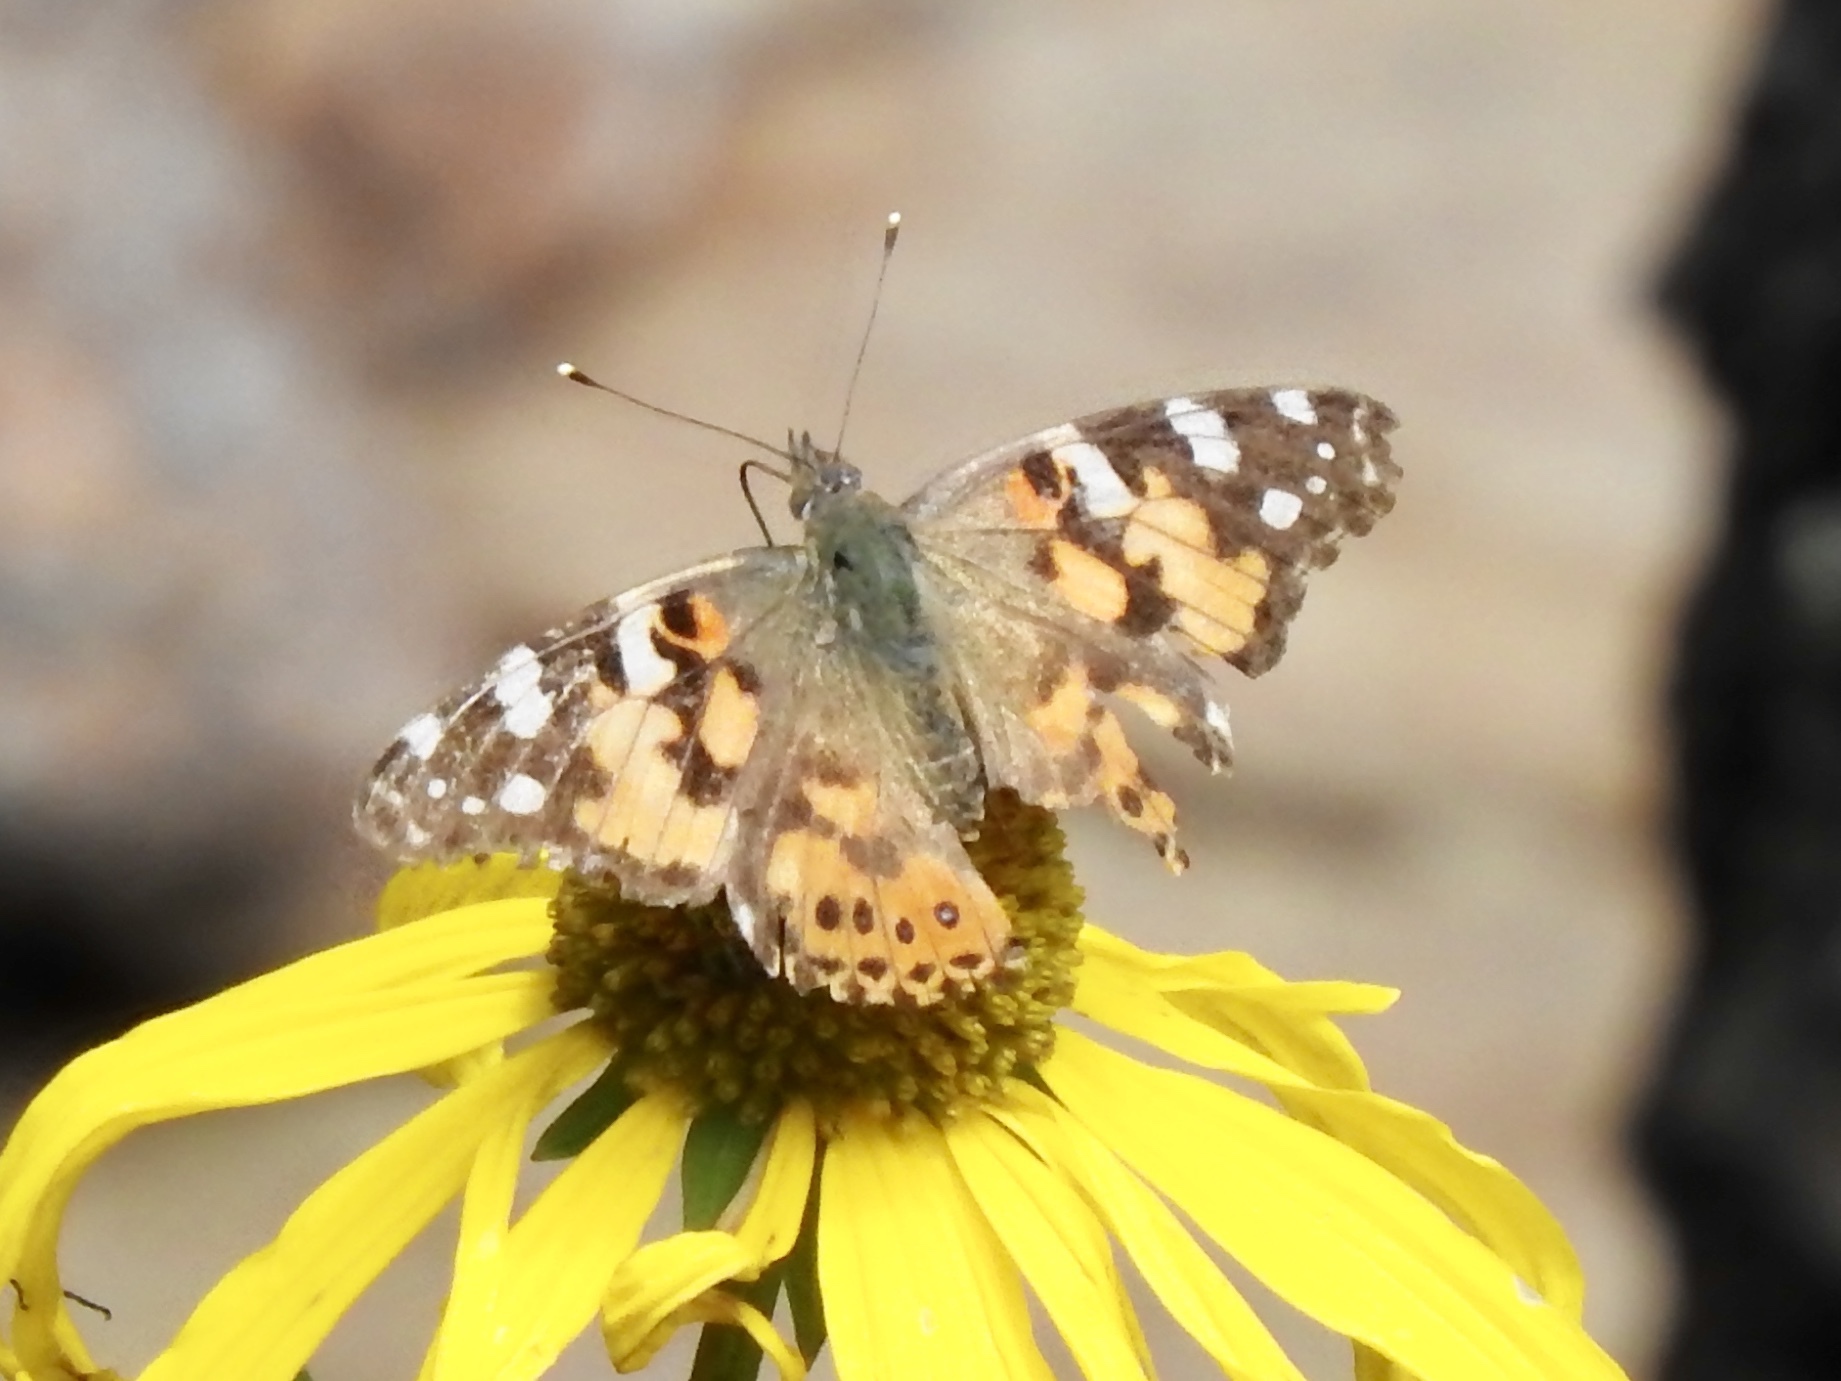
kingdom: Animalia
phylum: Arthropoda
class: Insecta
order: Lepidoptera
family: Nymphalidae
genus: Vanessa
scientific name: Vanessa cardui
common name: Painted lady
